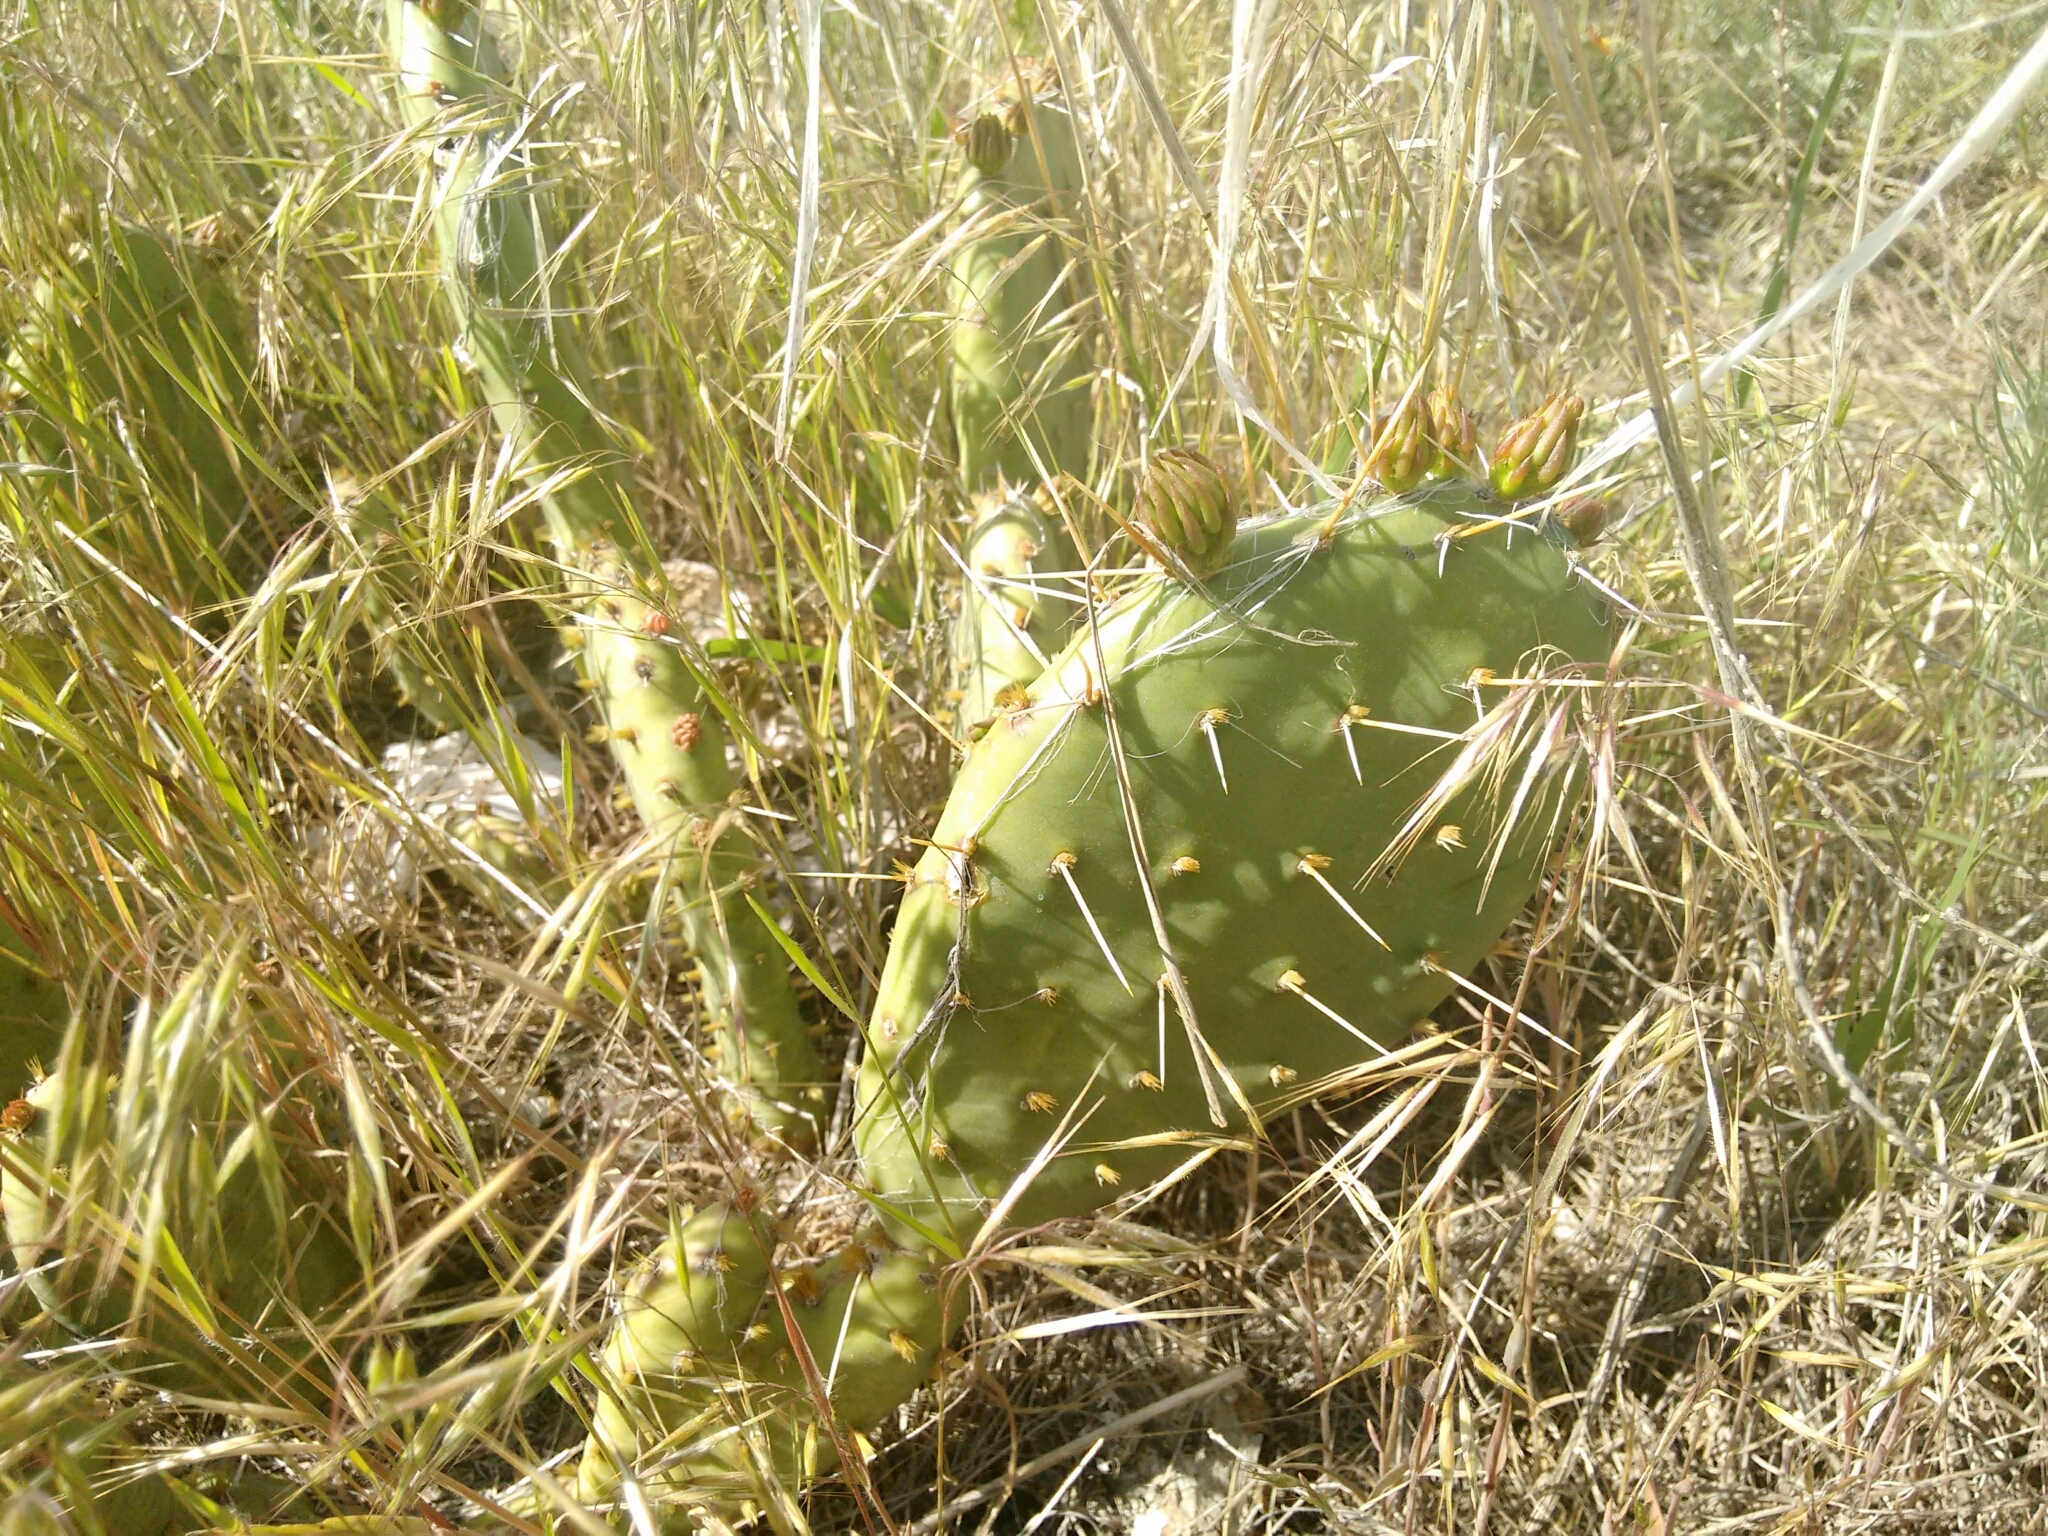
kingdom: Plantae
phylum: Tracheophyta
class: Magnoliopsida
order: Caryophyllales
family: Cactaceae
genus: Opuntia
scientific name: Opuntia macrorhiza
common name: Grassland pricklypear
